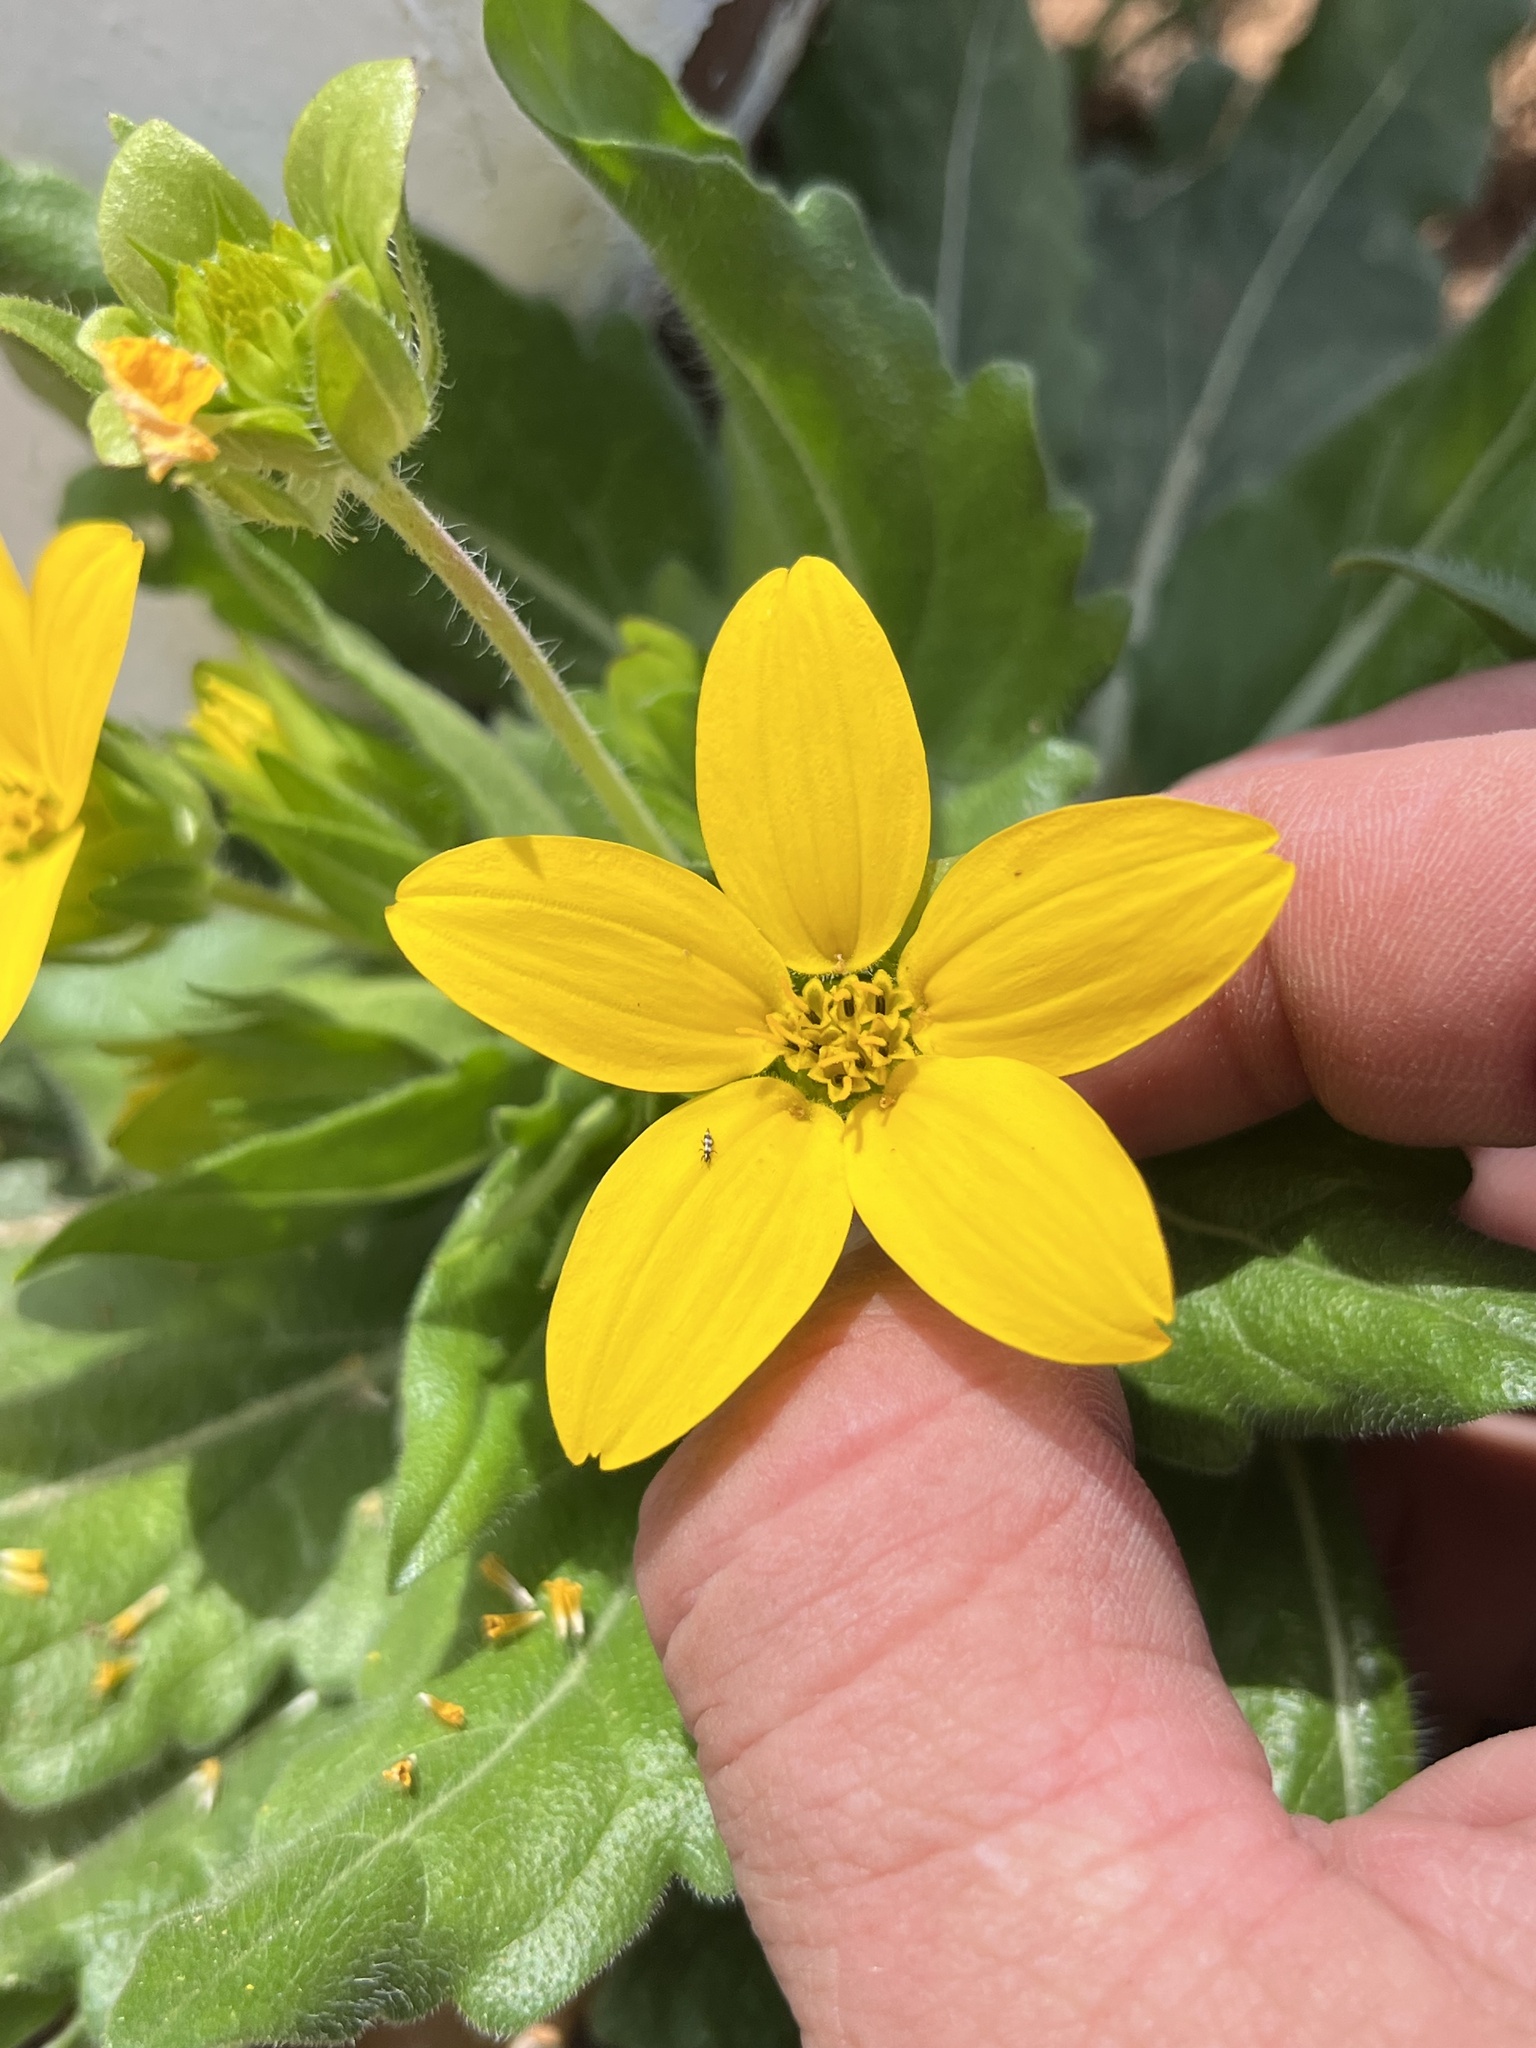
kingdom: Plantae
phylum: Tracheophyta
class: Magnoliopsida
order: Asterales
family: Asteraceae
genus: Lindheimera
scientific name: Lindheimera texana
